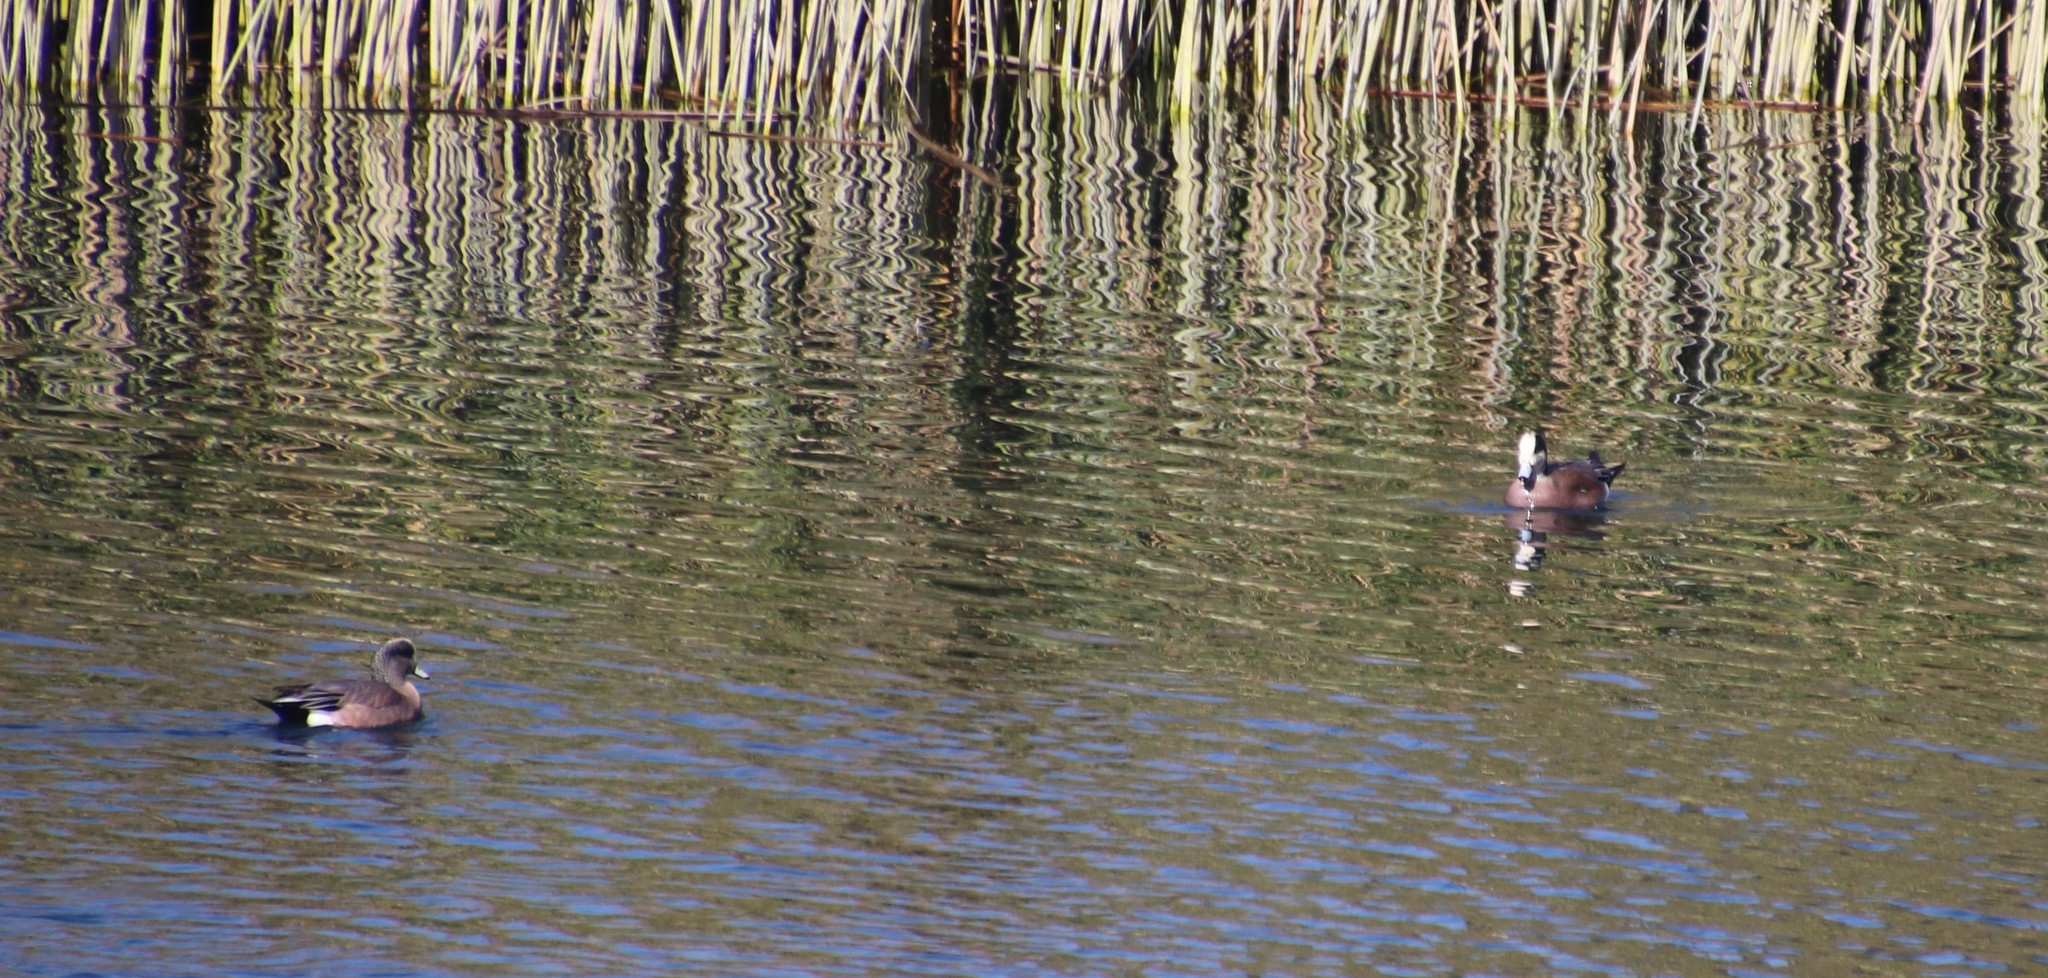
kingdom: Animalia
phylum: Chordata
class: Aves
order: Anseriformes
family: Anatidae
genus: Mareca
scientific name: Mareca americana
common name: American wigeon
